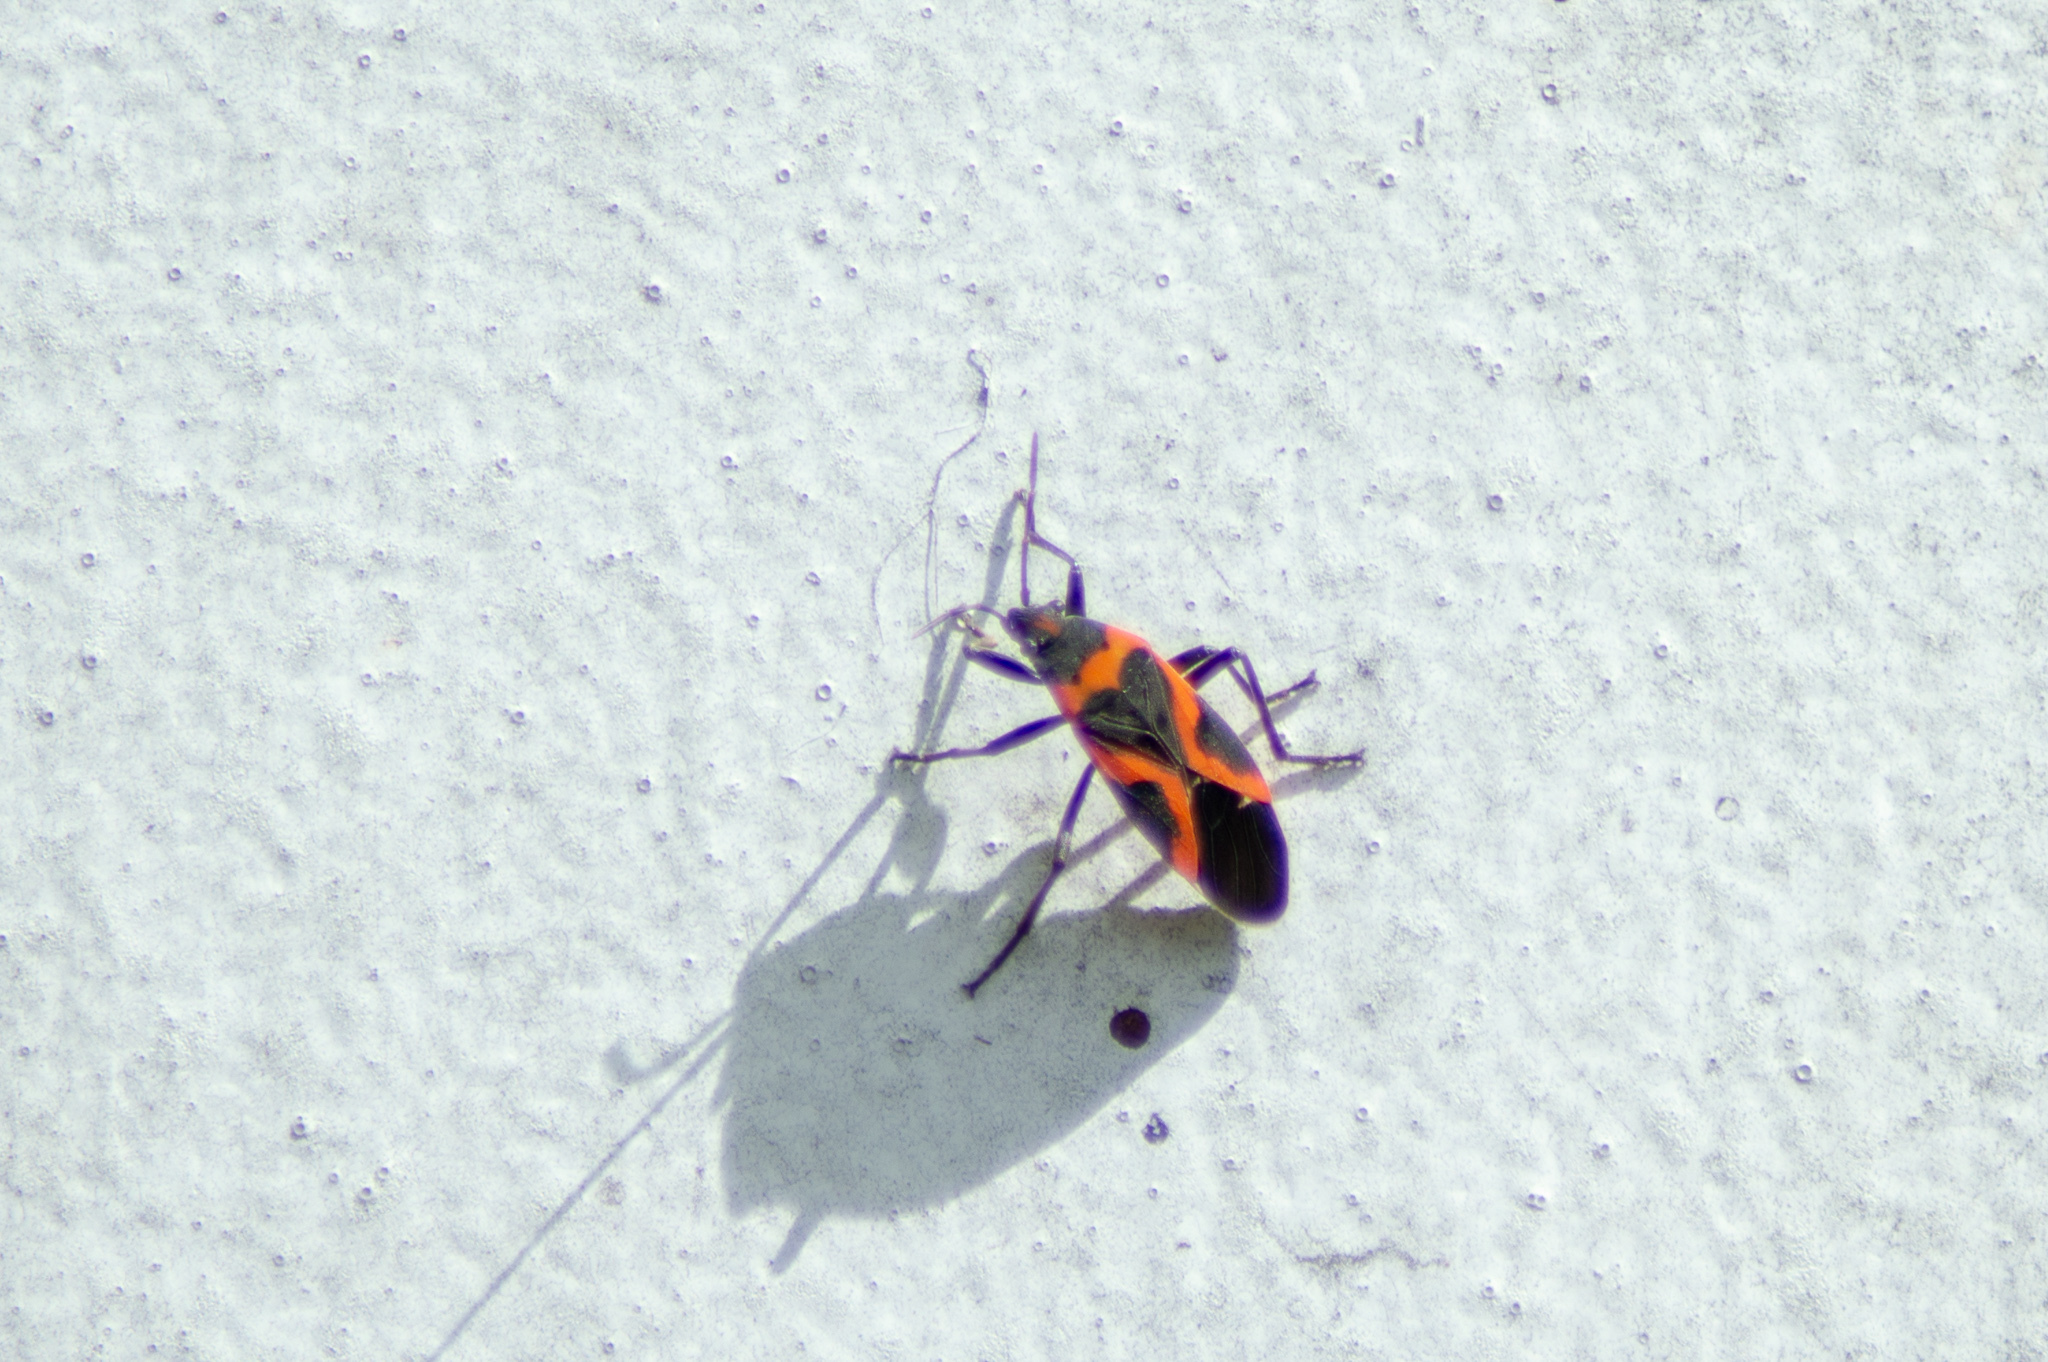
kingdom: Animalia
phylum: Arthropoda
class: Insecta
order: Hemiptera
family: Lygaeidae
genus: Lygaeus
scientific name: Lygaeus kalmii
